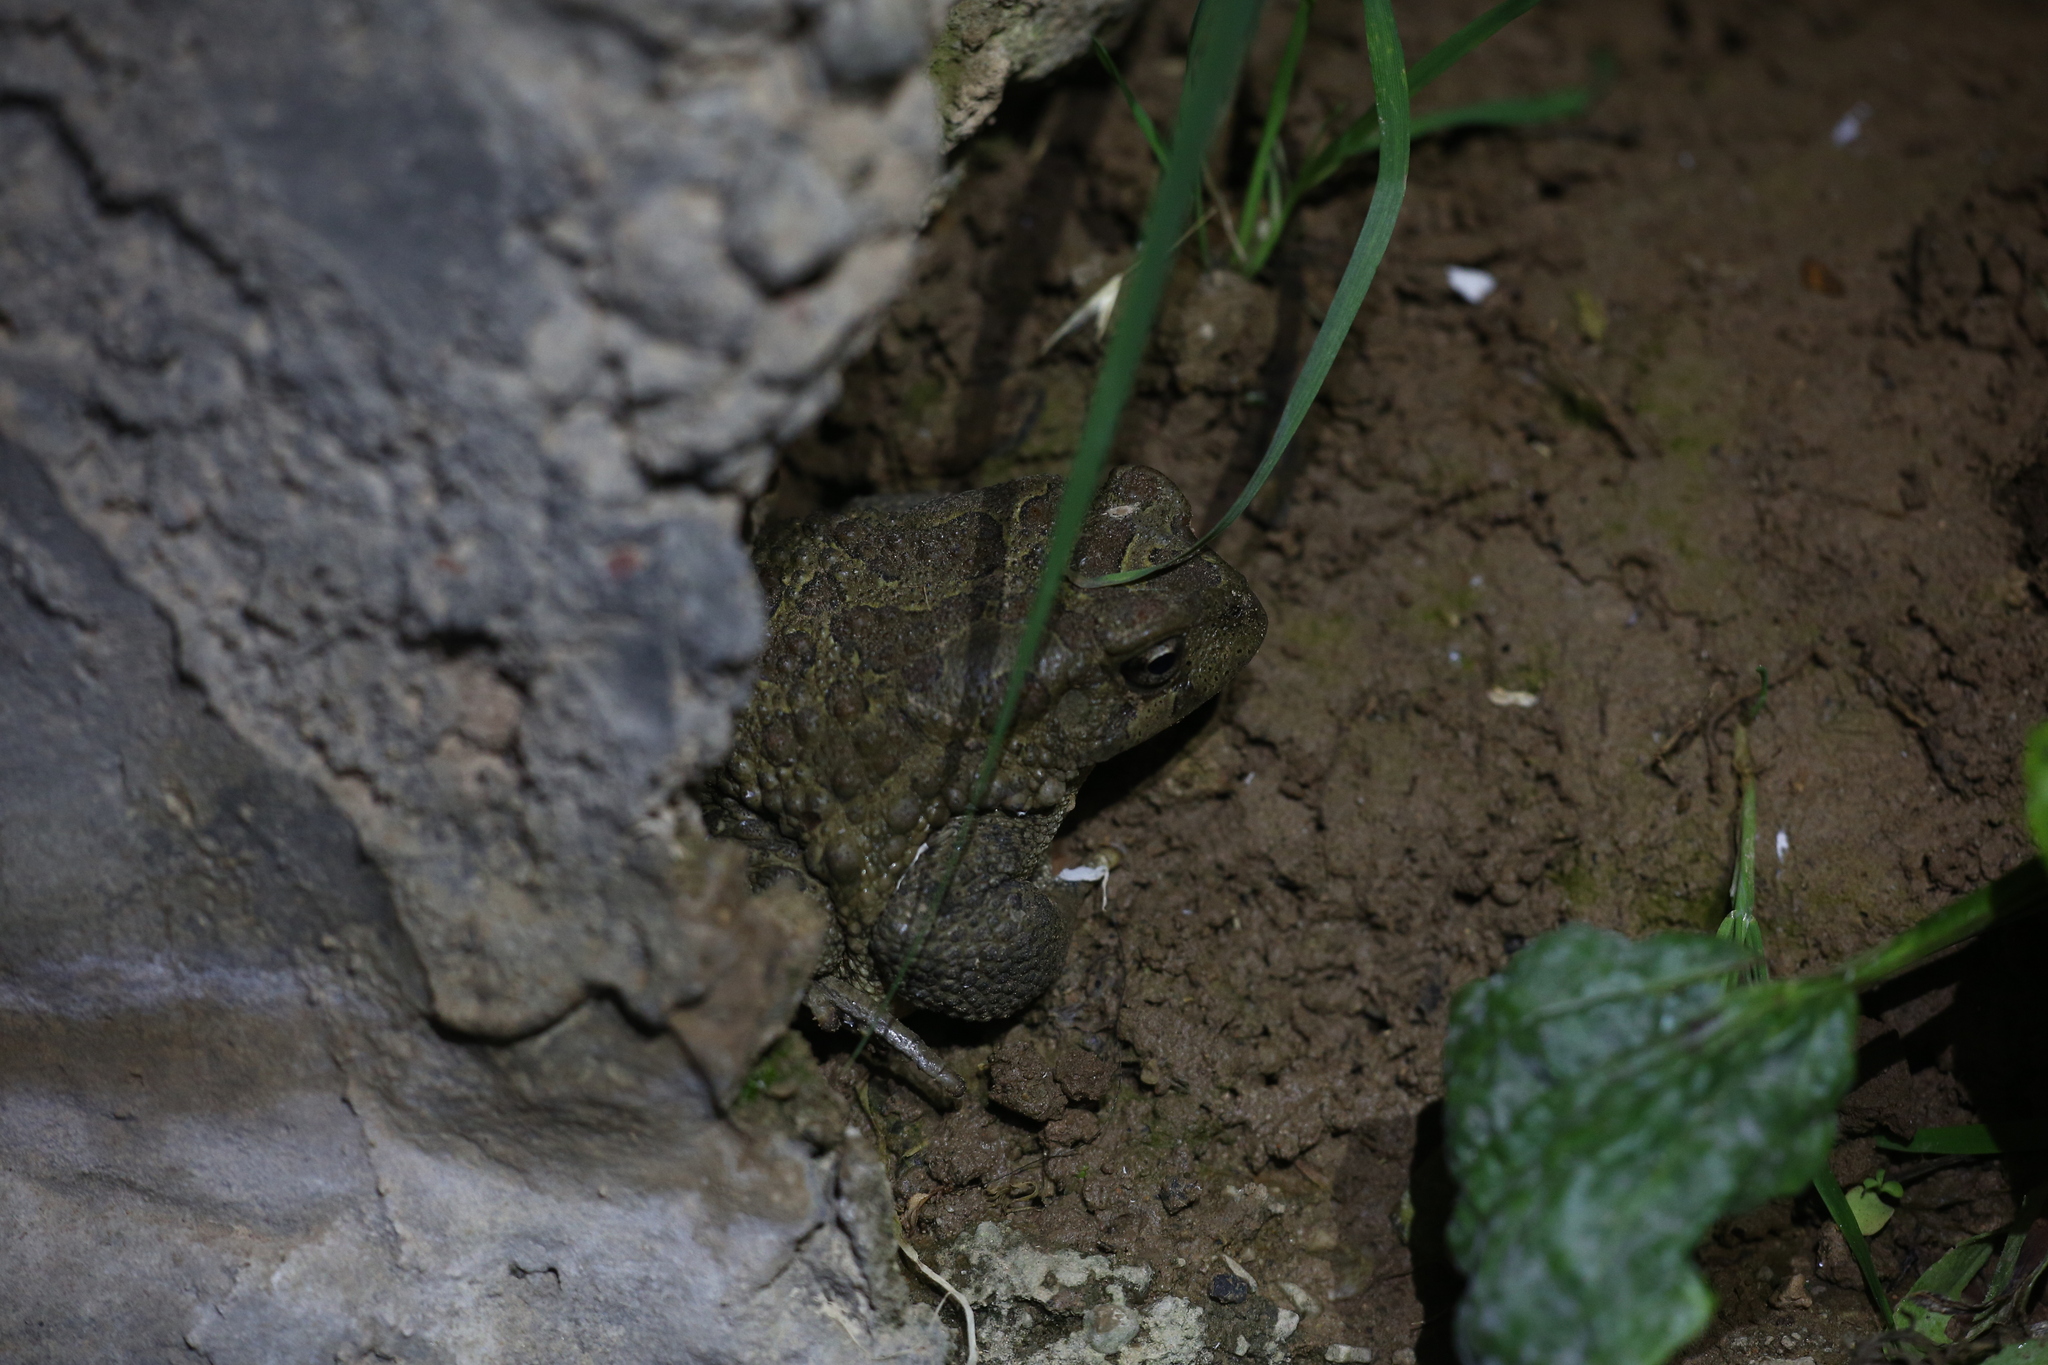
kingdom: Animalia
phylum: Chordata
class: Amphibia
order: Anura
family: Bufonidae
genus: Sclerophrys
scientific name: Sclerophrys mauritanica
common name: Berber toad
